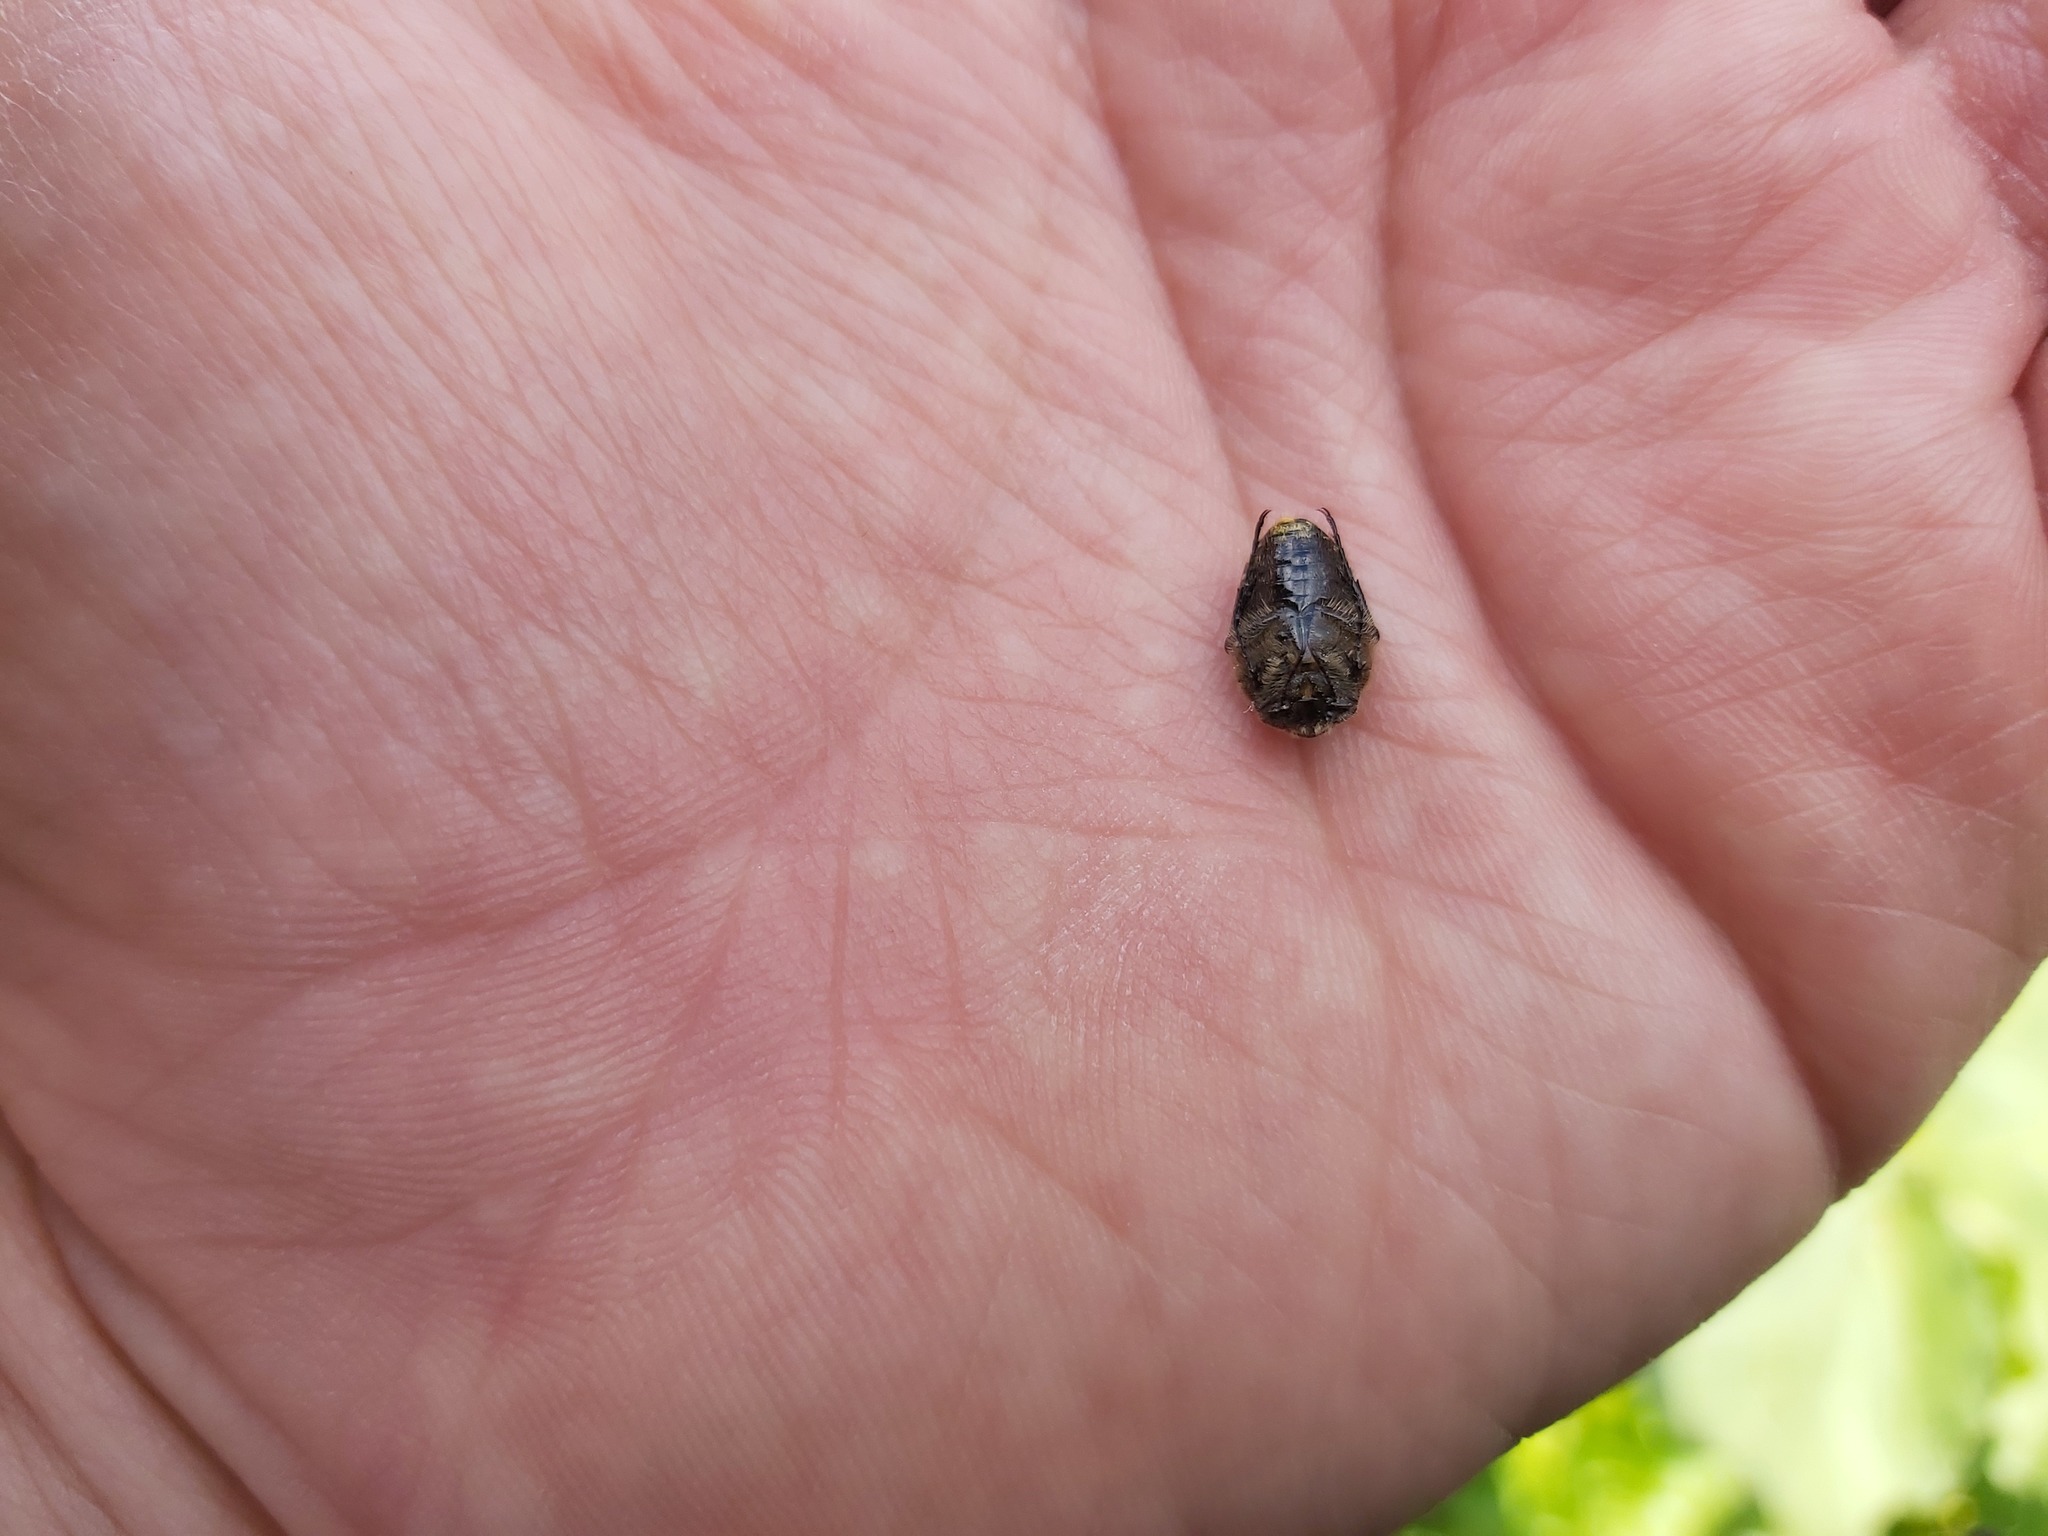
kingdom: Animalia
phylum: Arthropoda
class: Insecta
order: Coleoptera
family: Scarabaeidae
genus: Oxythyrea
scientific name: Oxythyrea funesta
